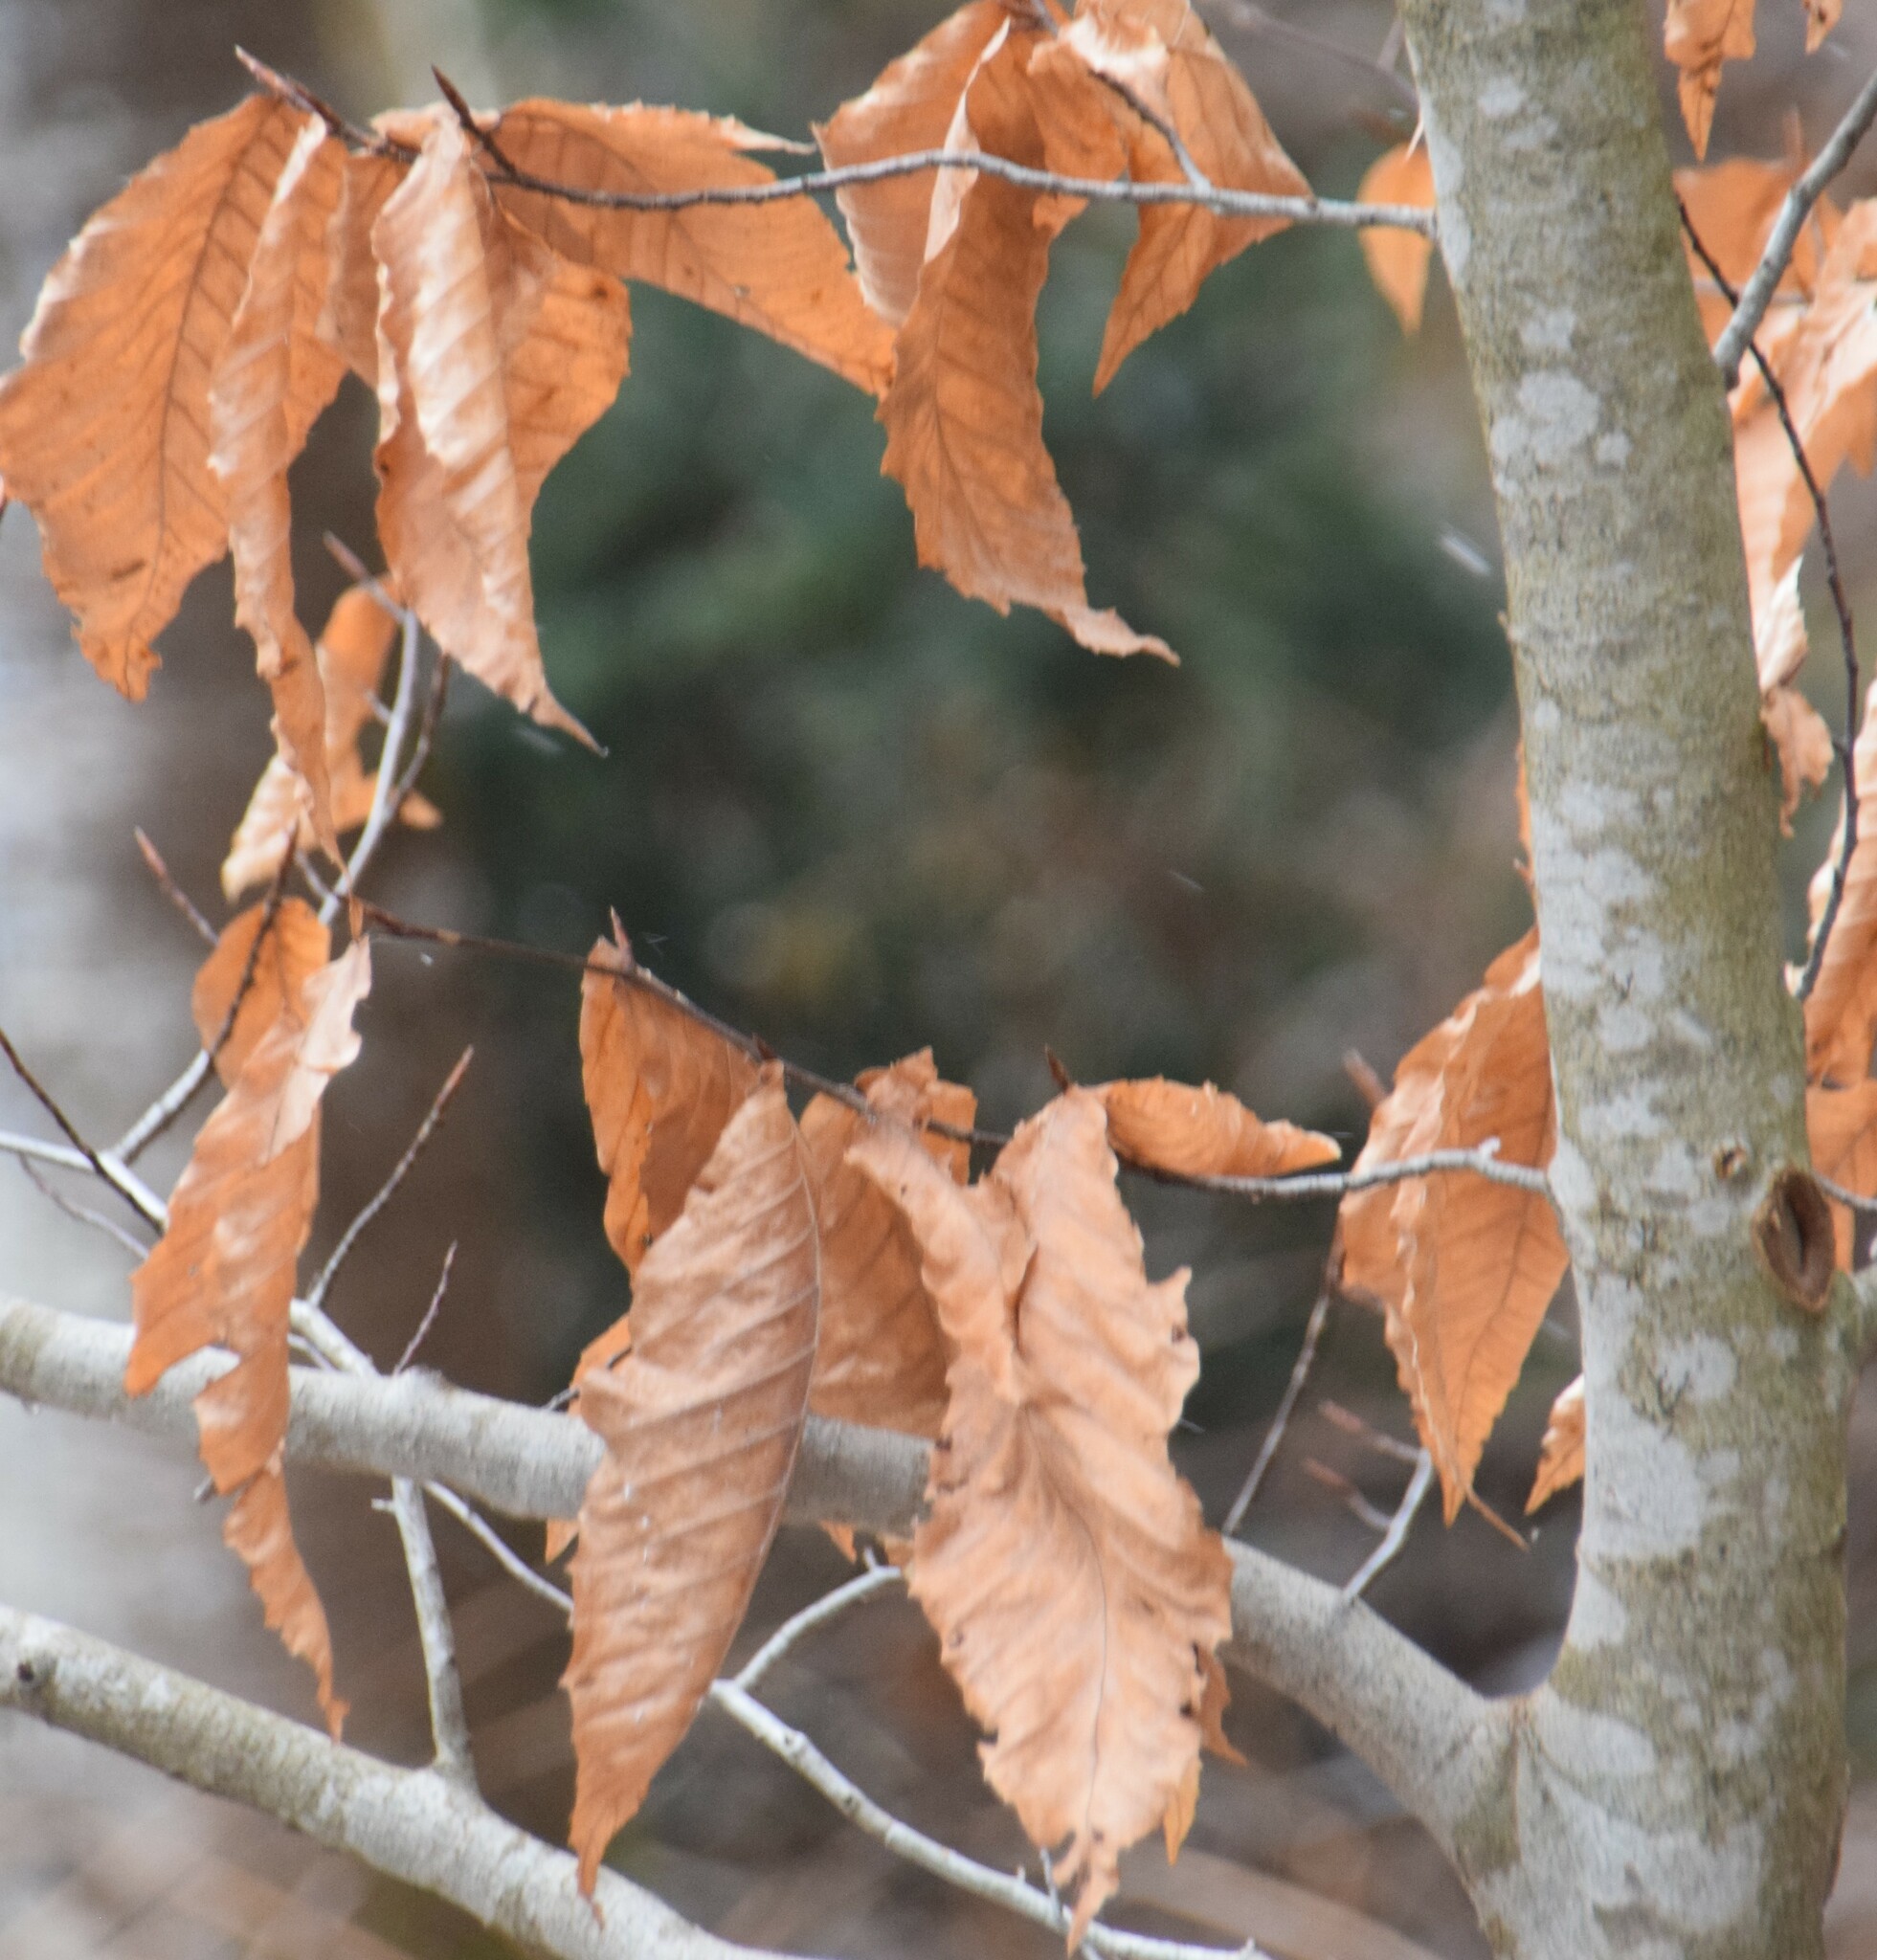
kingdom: Plantae
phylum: Tracheophyta
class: Magnoliopsida
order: Fagales
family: Fagaceae
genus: Fagus
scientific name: Fagus grandifolia
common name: American beech
